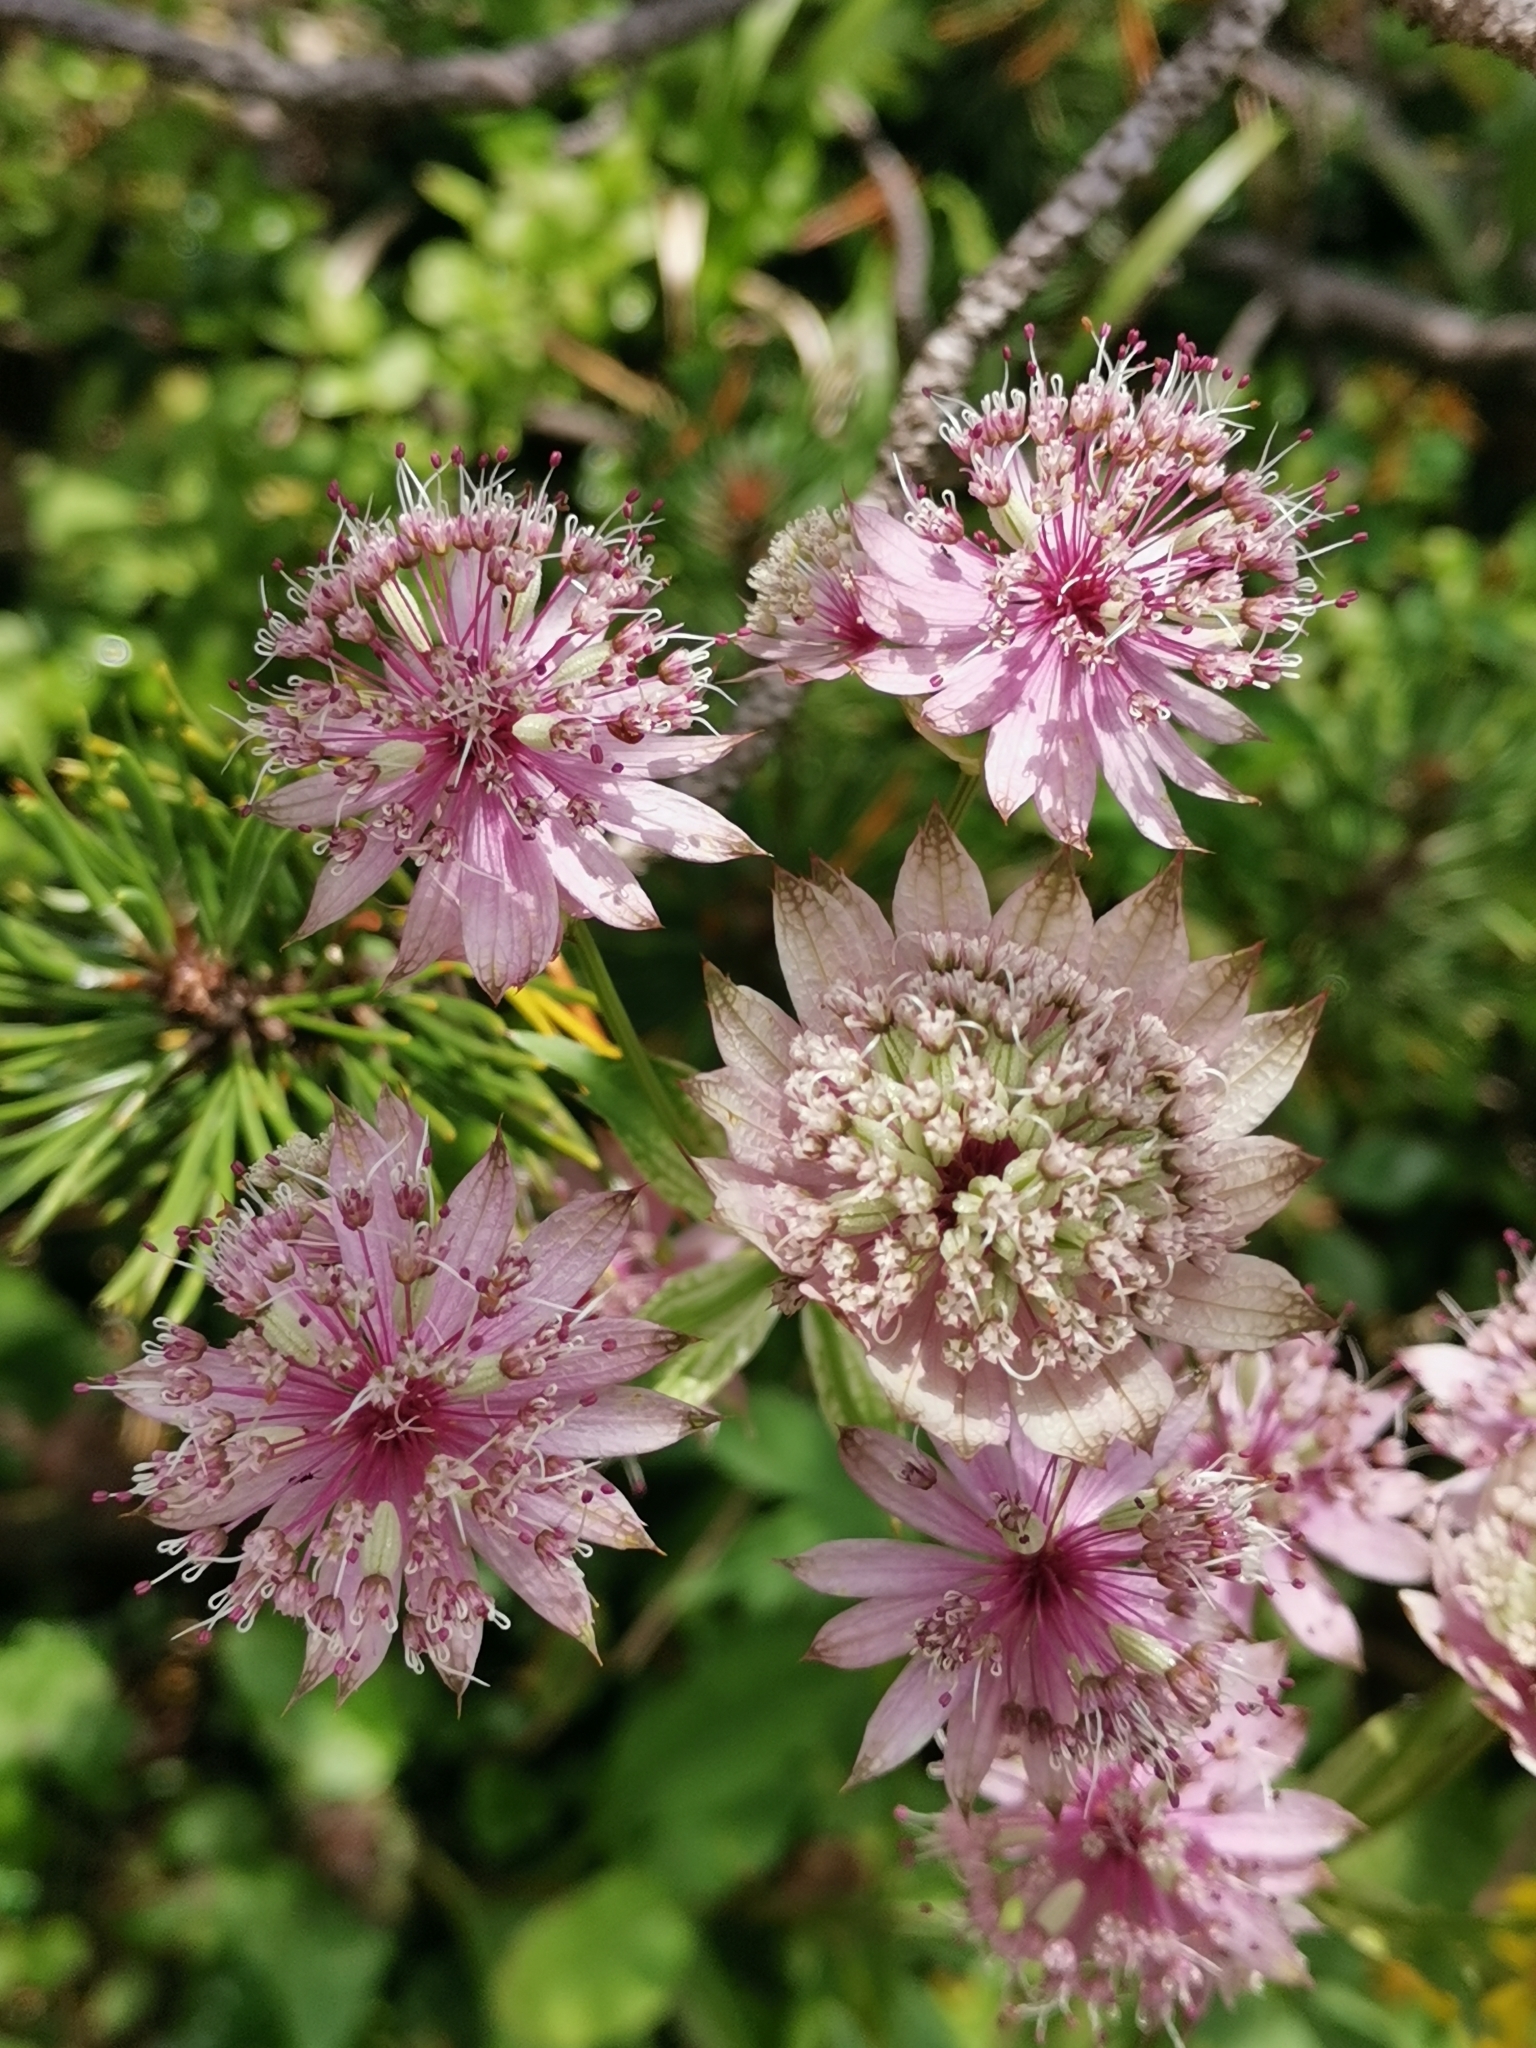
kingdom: Plantae
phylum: Tracheophyta
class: Magnoliopsida
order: Apiales
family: Apiaceae
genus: Astrantia
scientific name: Astrantia major
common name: Greater masterwort
